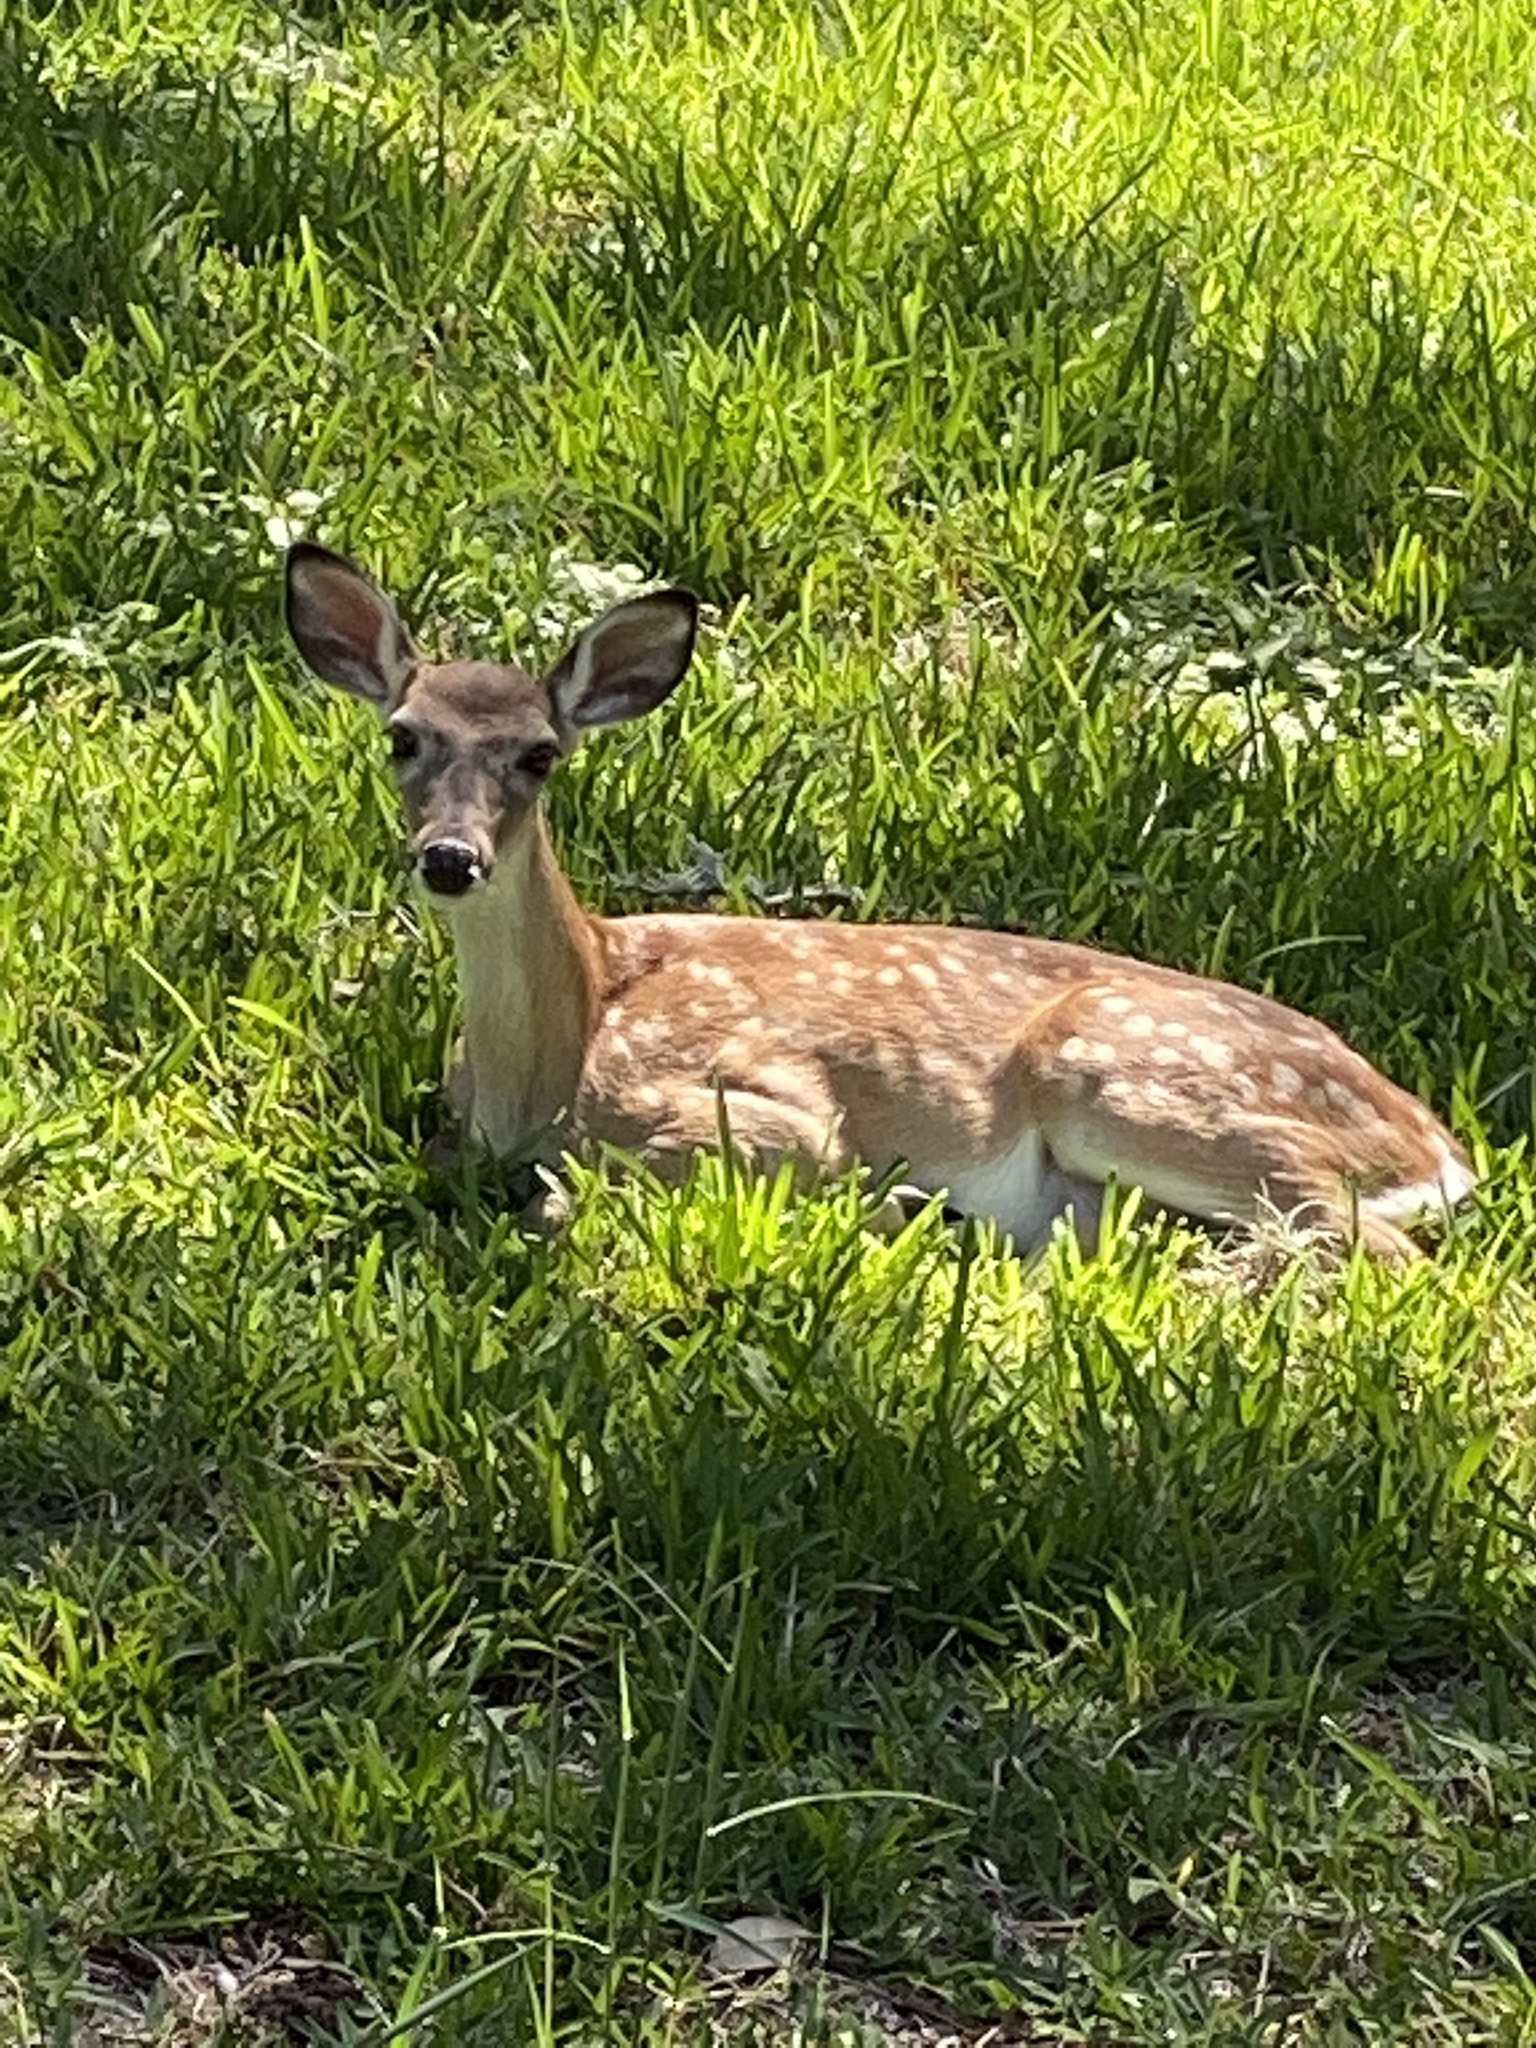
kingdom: Animalia
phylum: Chordata
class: Mammalia
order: Artiodactyla
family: Cervidae
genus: Odocoileus
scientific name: Odocoileus virginianus
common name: White-tailed deer
